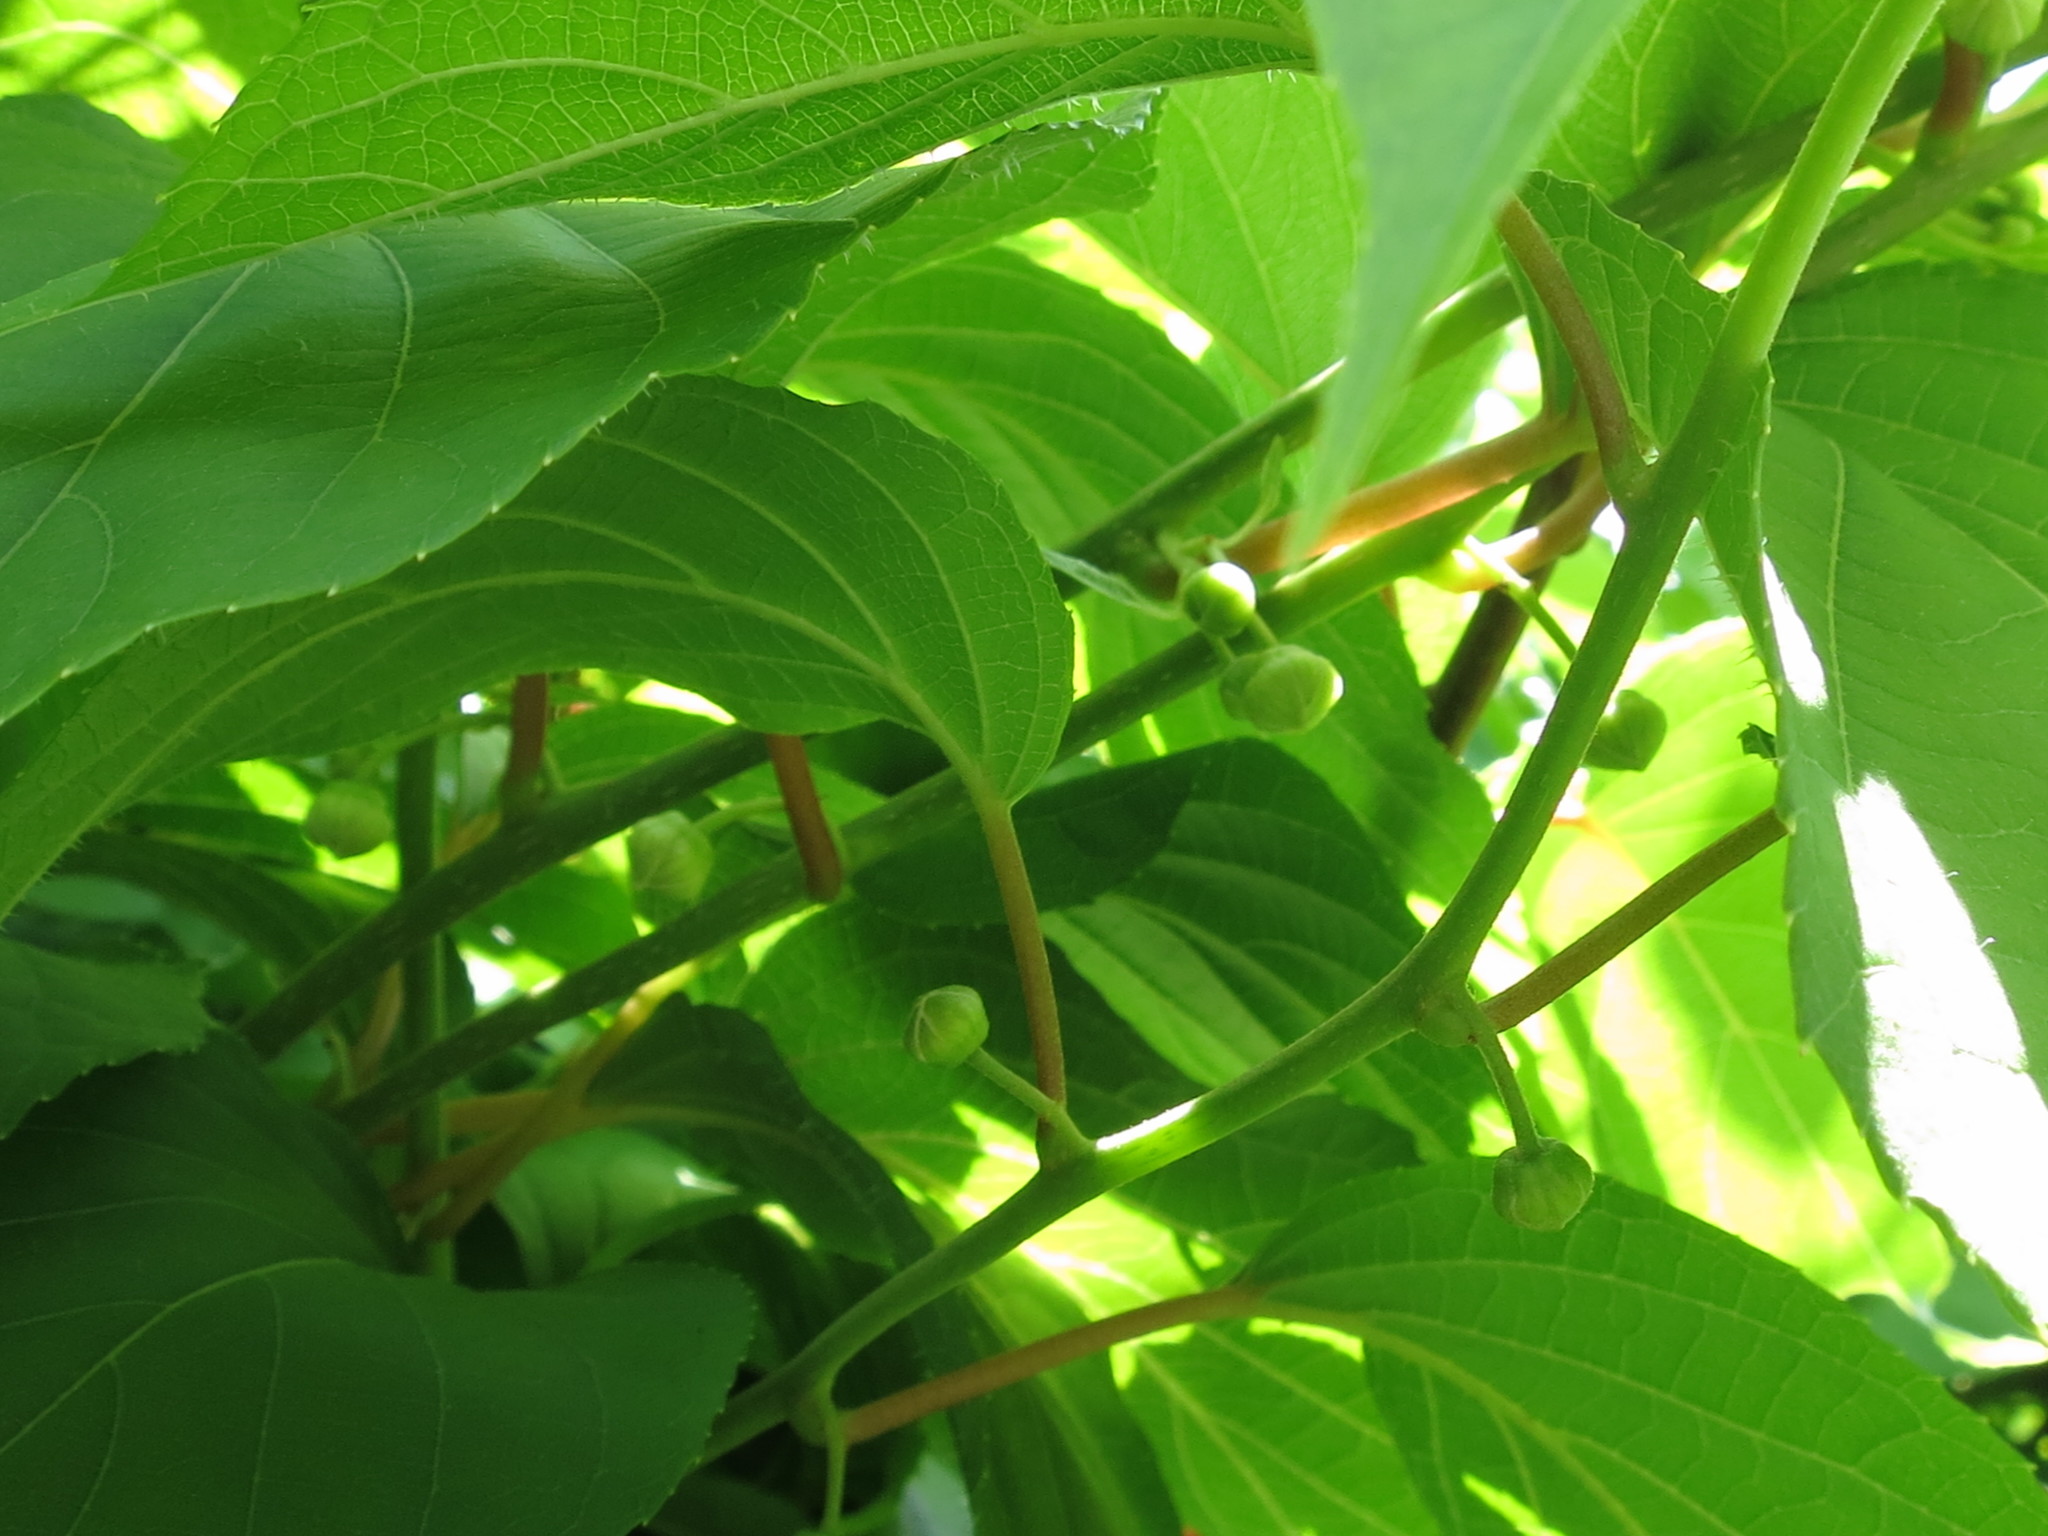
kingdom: Plantae
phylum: Tracheophyta
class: Magnoliopsida
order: Ericales
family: Actinidiaceae
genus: Actinidia
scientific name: Actinidia arguta
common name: Tara vine
